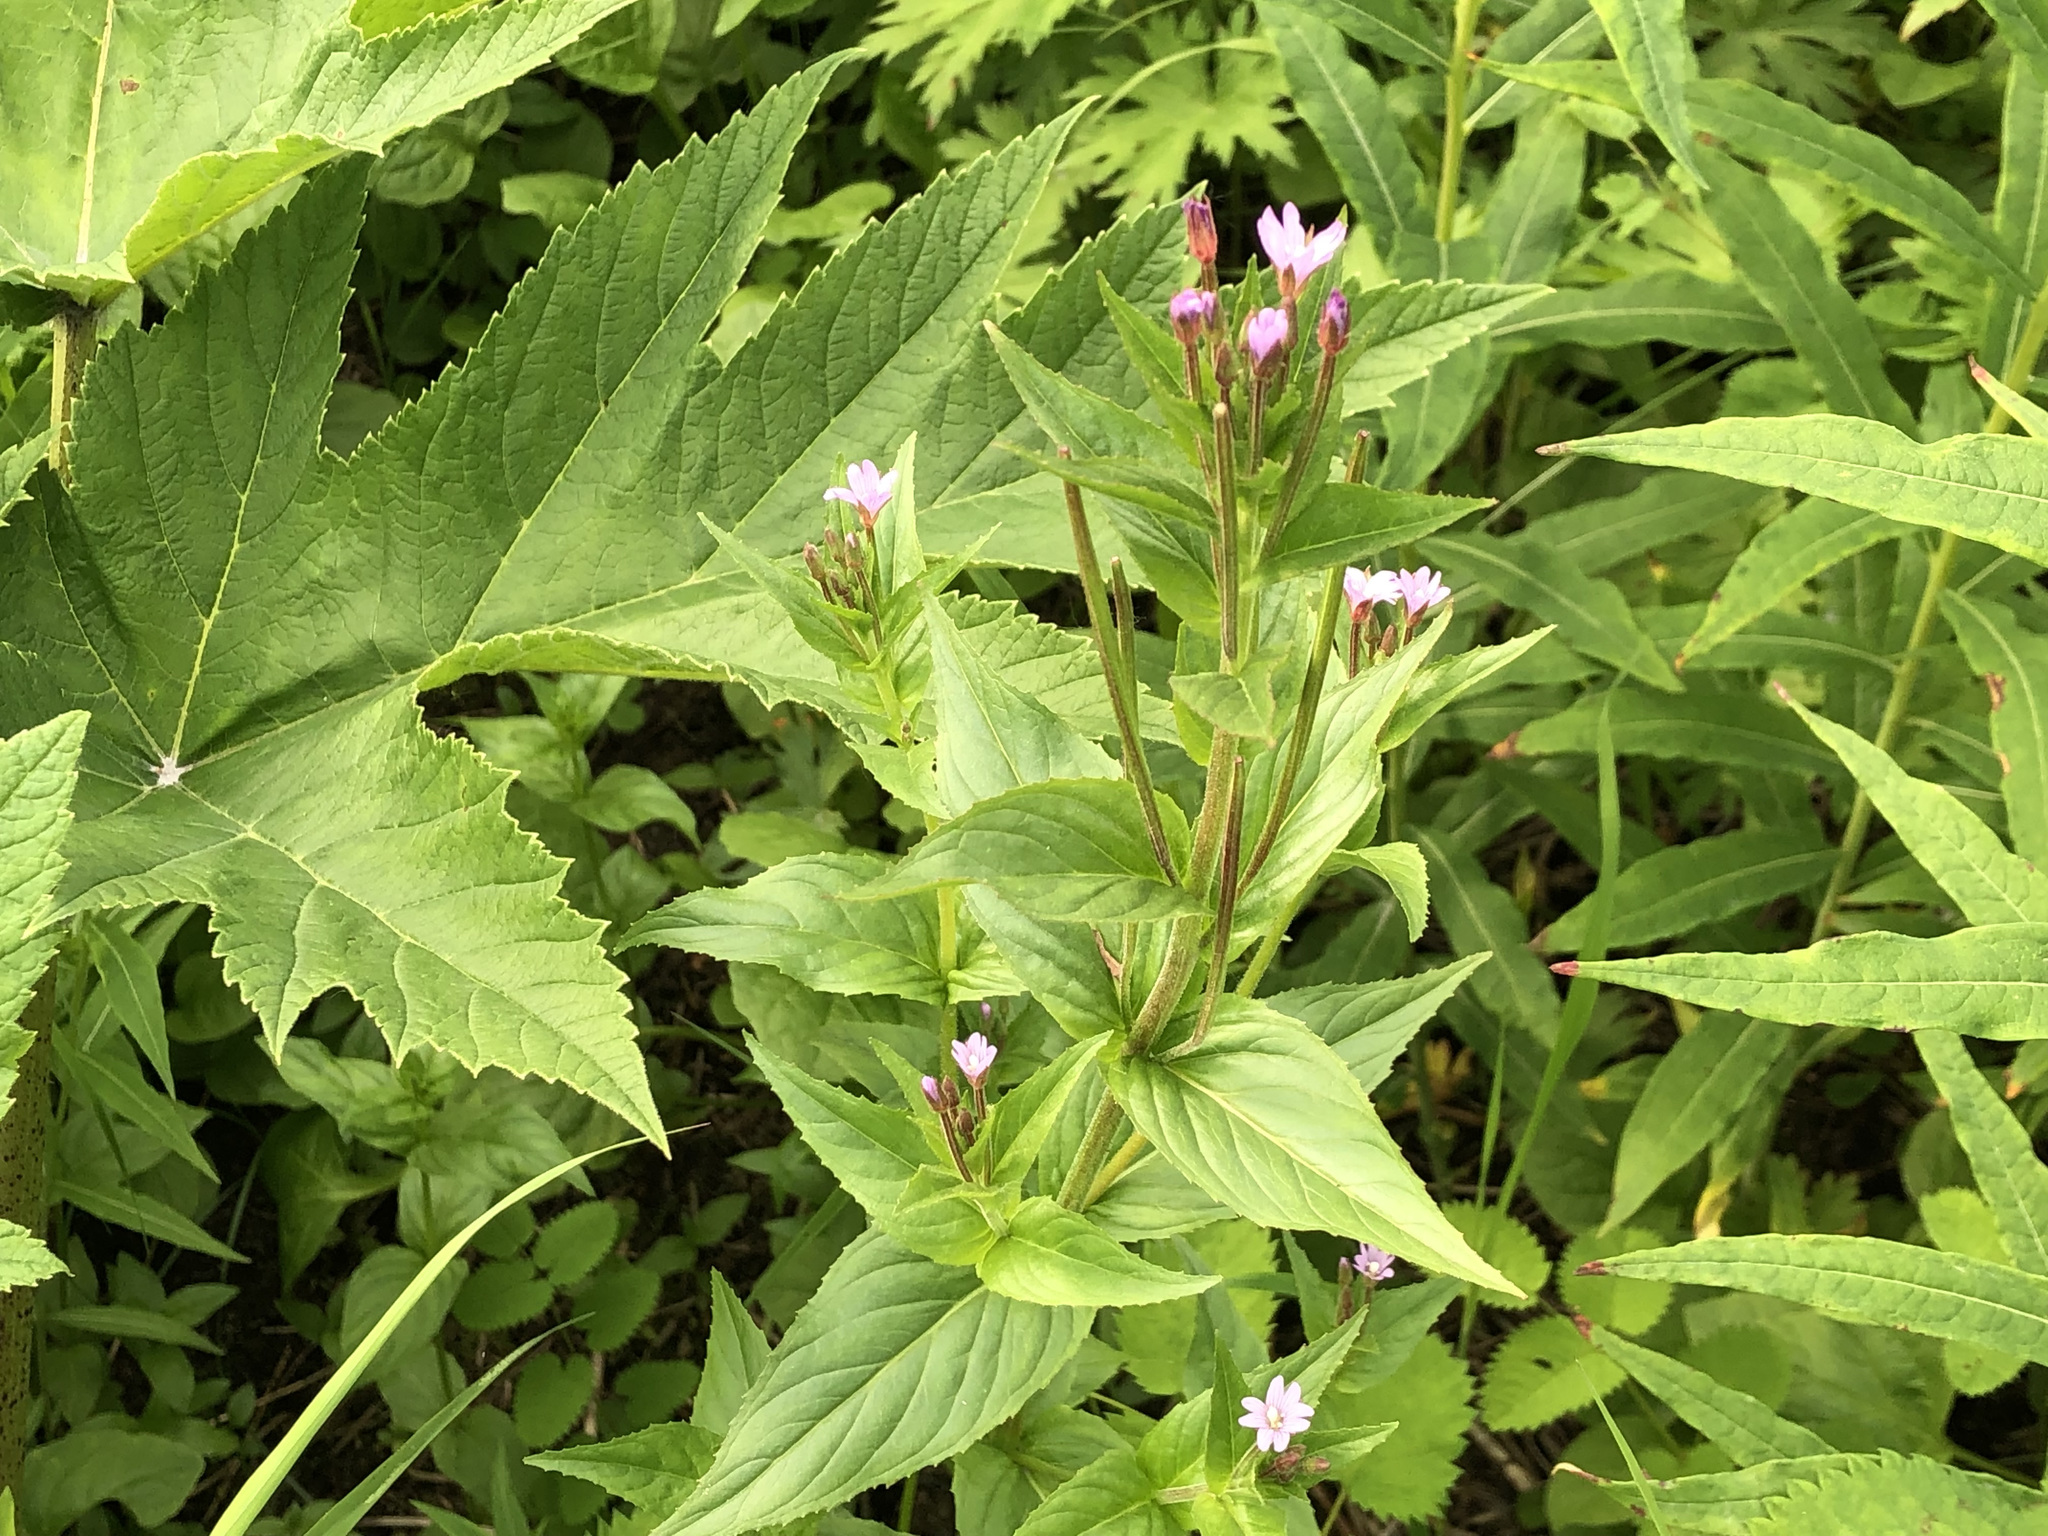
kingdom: Plantae
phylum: Tracheophyta
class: Magnoliopsida
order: Myrtales
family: Onagraceae
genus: Epilobium
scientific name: Epilobium ciliatum
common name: American willowherb
